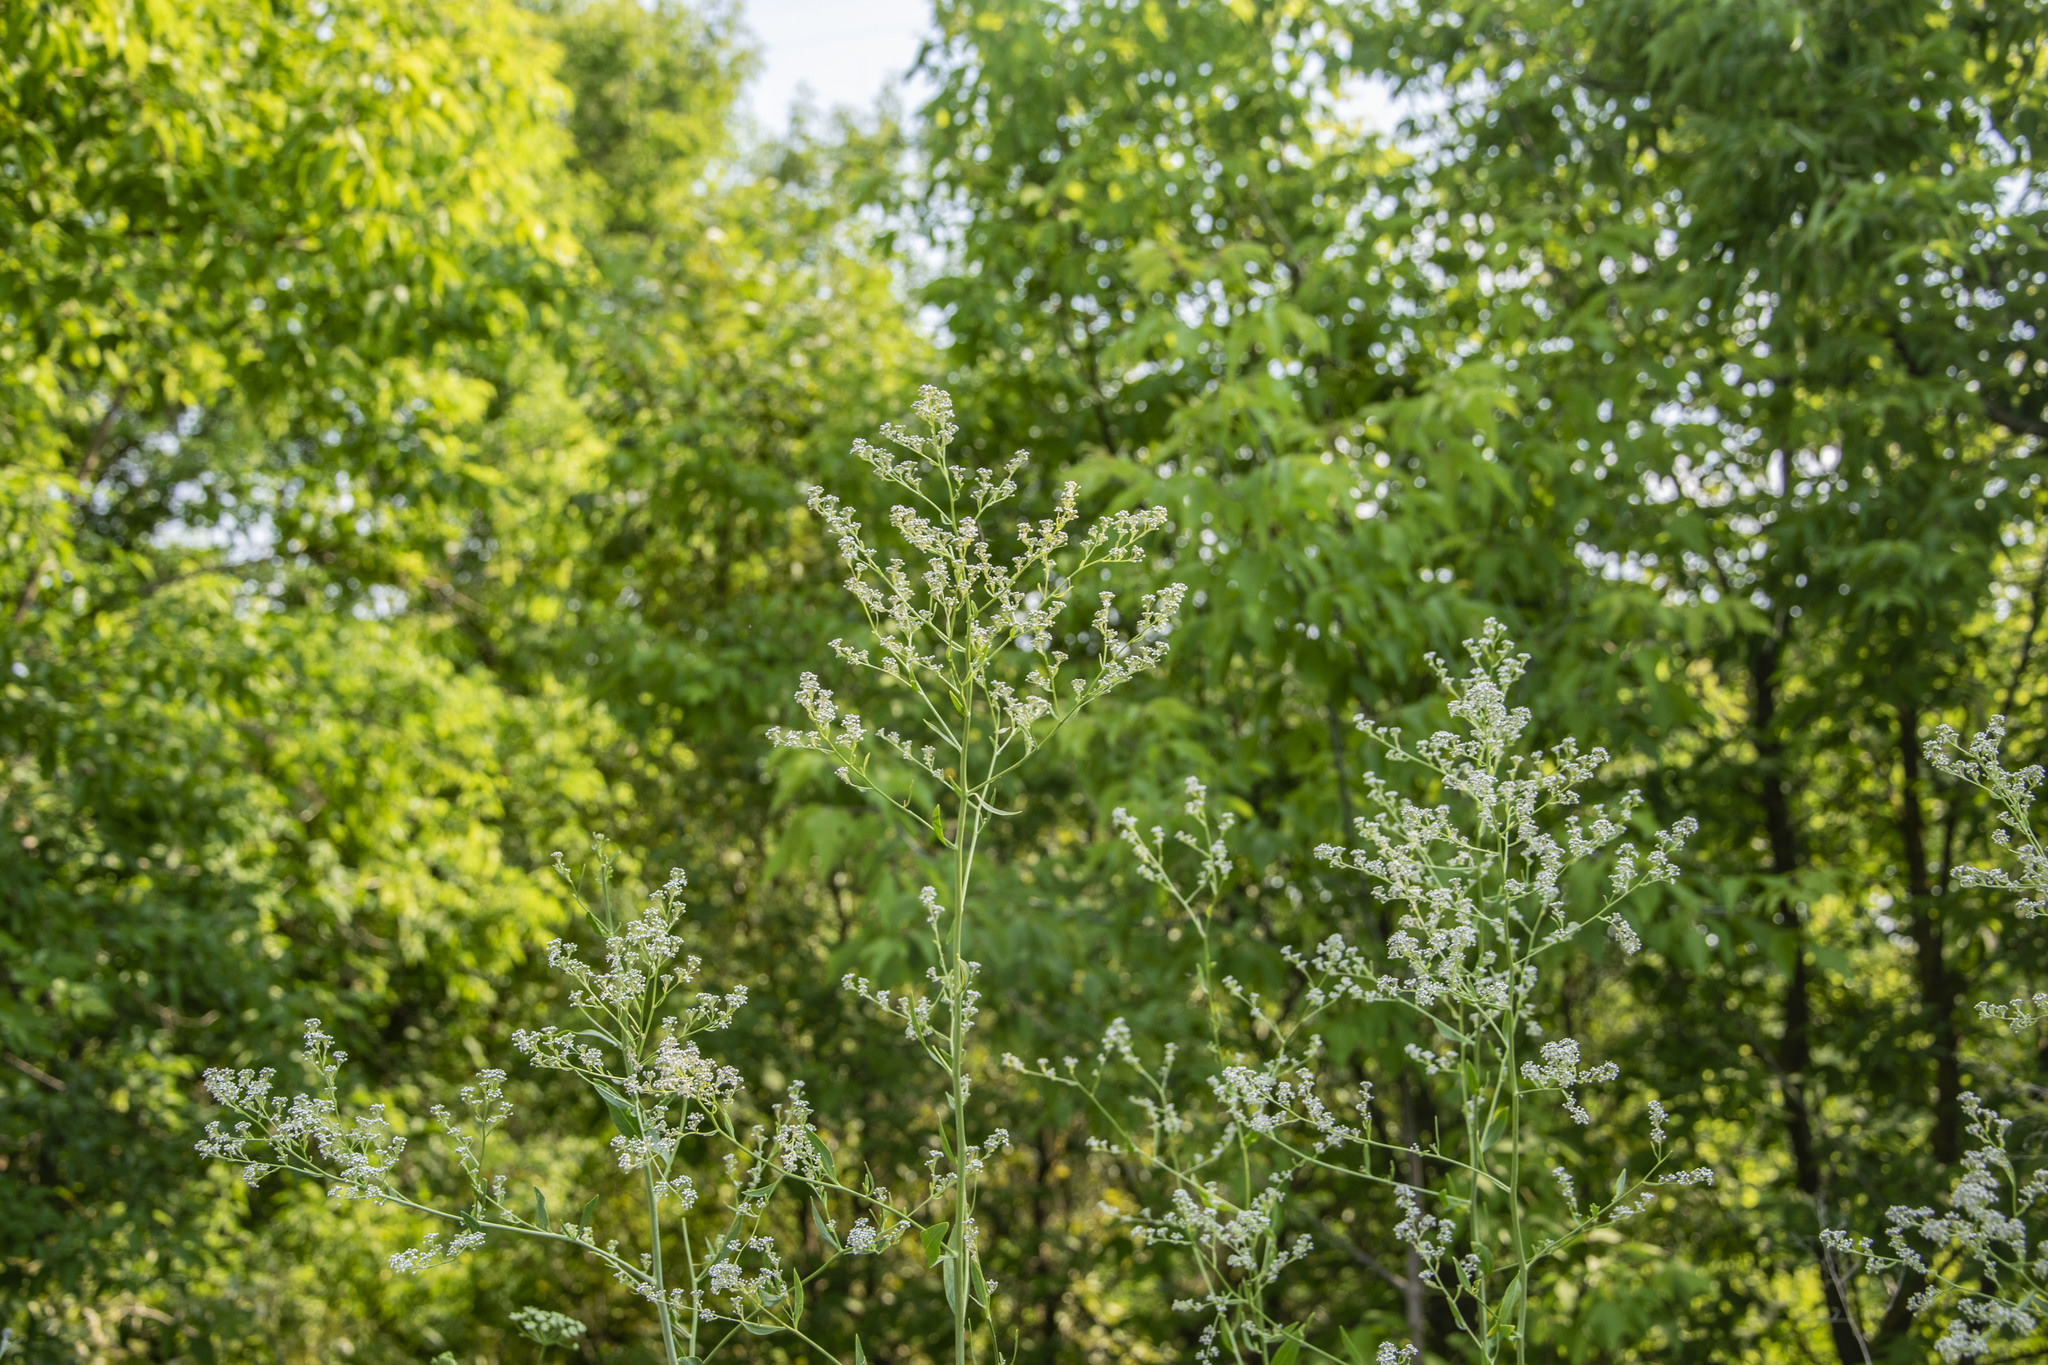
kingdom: Plantae
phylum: Tracheophyta
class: Magnoliopsida
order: Brassicales
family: Brassicaceae
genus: Lepidium
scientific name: Lepidium latifolium
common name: Dittander
